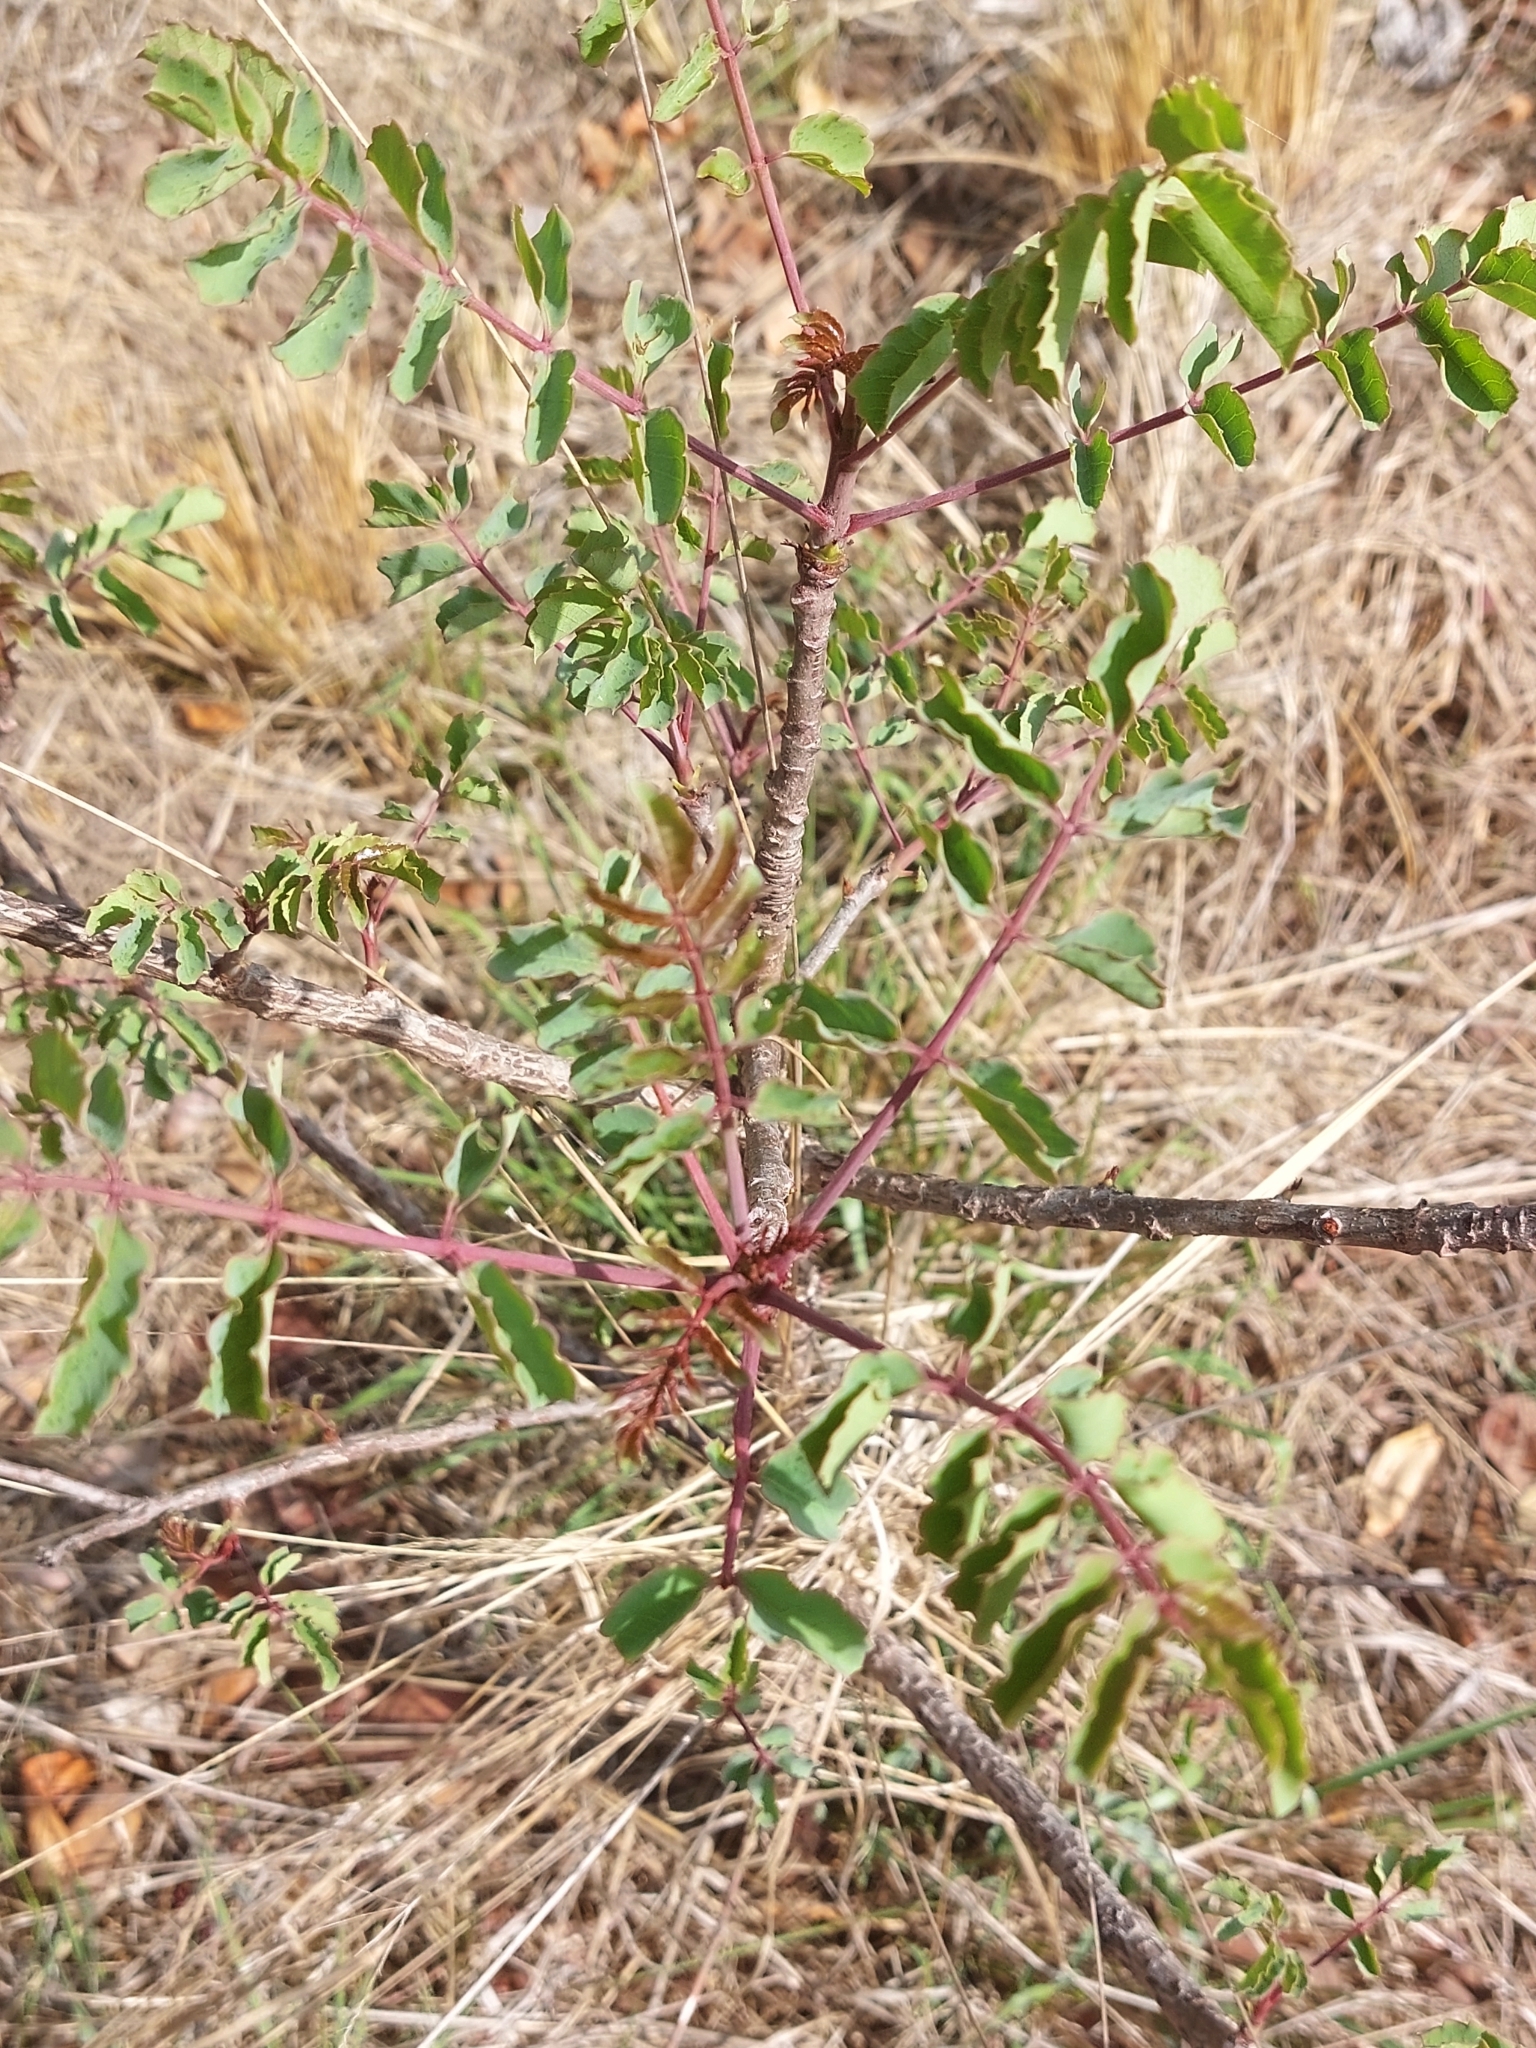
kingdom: Plantae
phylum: Tracheophyta
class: Magnoliopsida
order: Sapindales
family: Anacardiaceae
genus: Sclerocarya
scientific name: Sclerocarya birrea
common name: Marula
